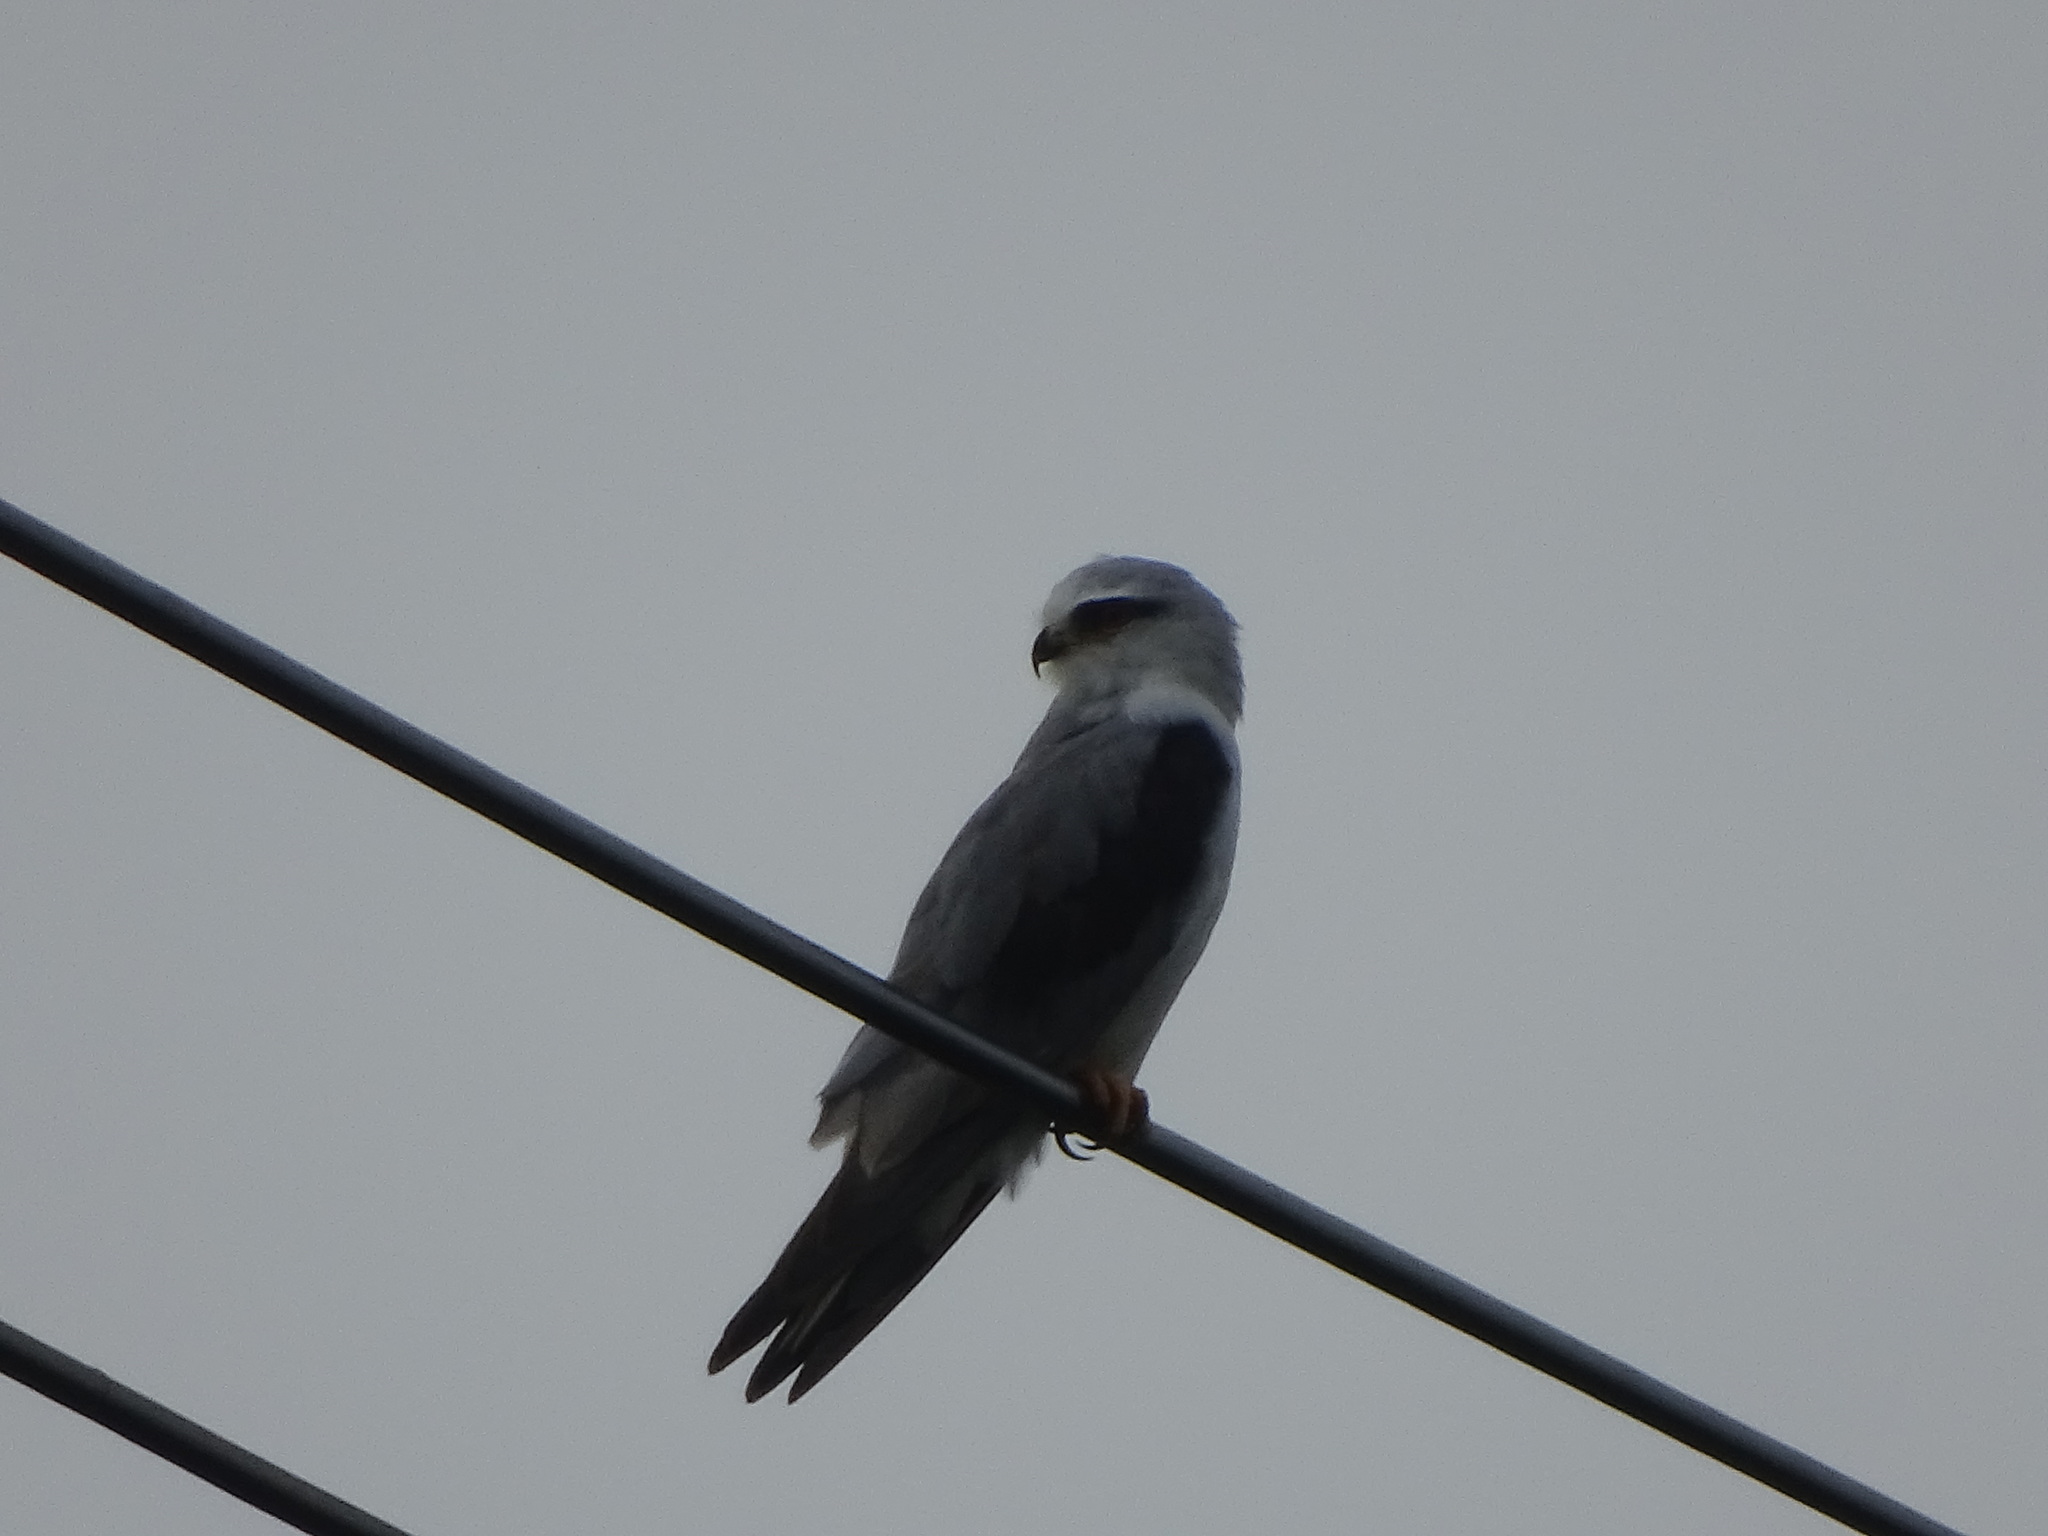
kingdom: Animalia
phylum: Chordata
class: Aves
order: Accipitriformes
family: Accipitridae
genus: Elanus
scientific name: Elanus caeruleus
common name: Black-winged kite
